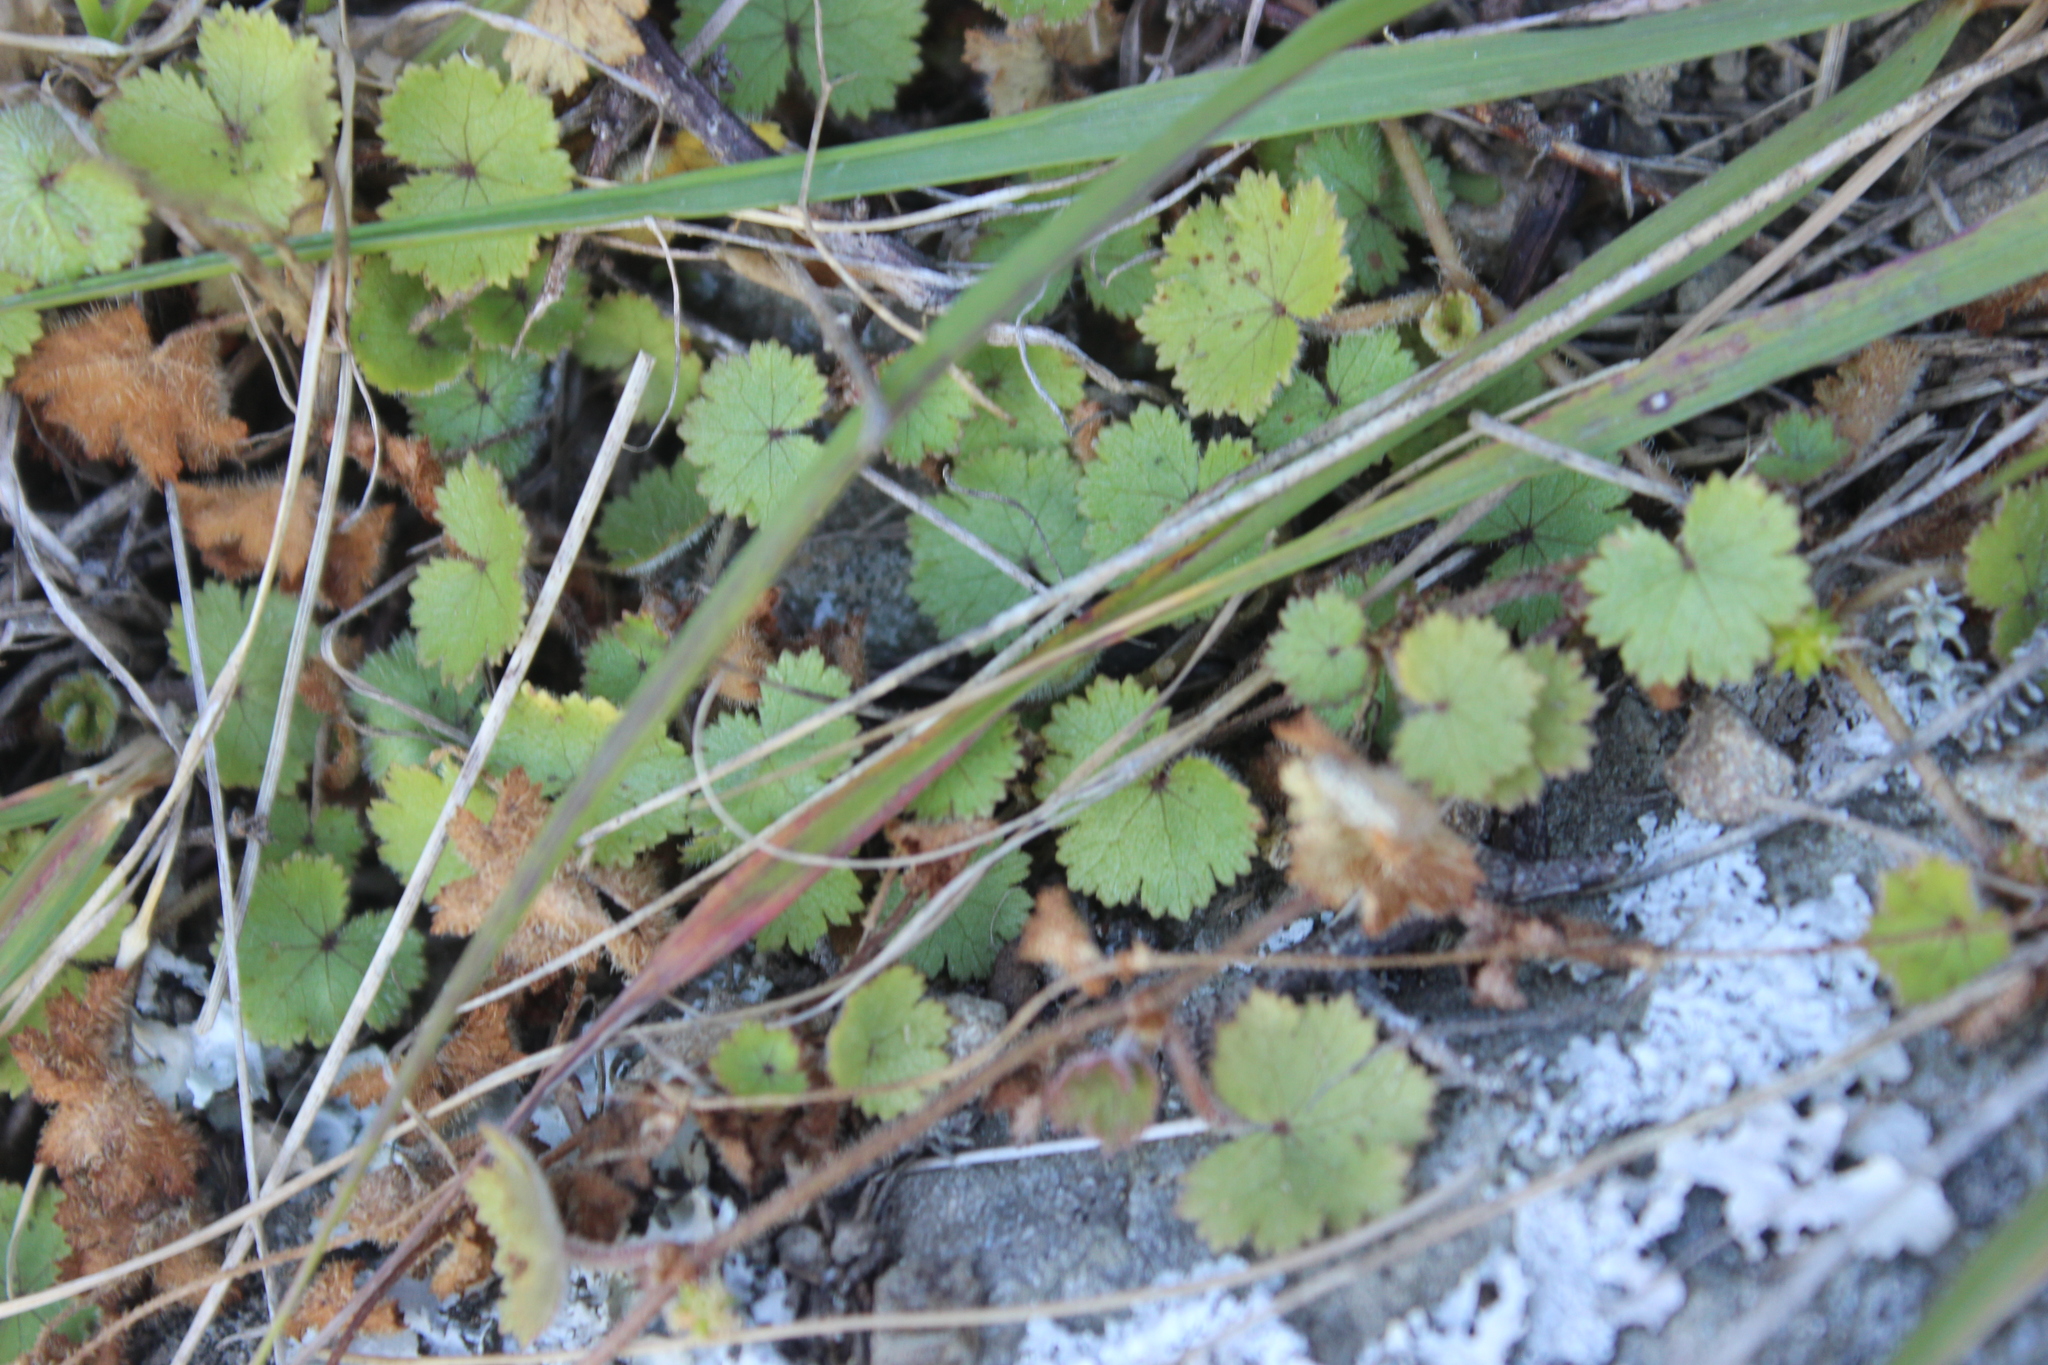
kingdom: Plantae
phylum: Tracheophyta
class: Magnoliopsida
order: Apiales
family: Araliaceae
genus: Hydrocotyle
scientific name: Hydrocotyle moschata
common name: Hairy pennywort
